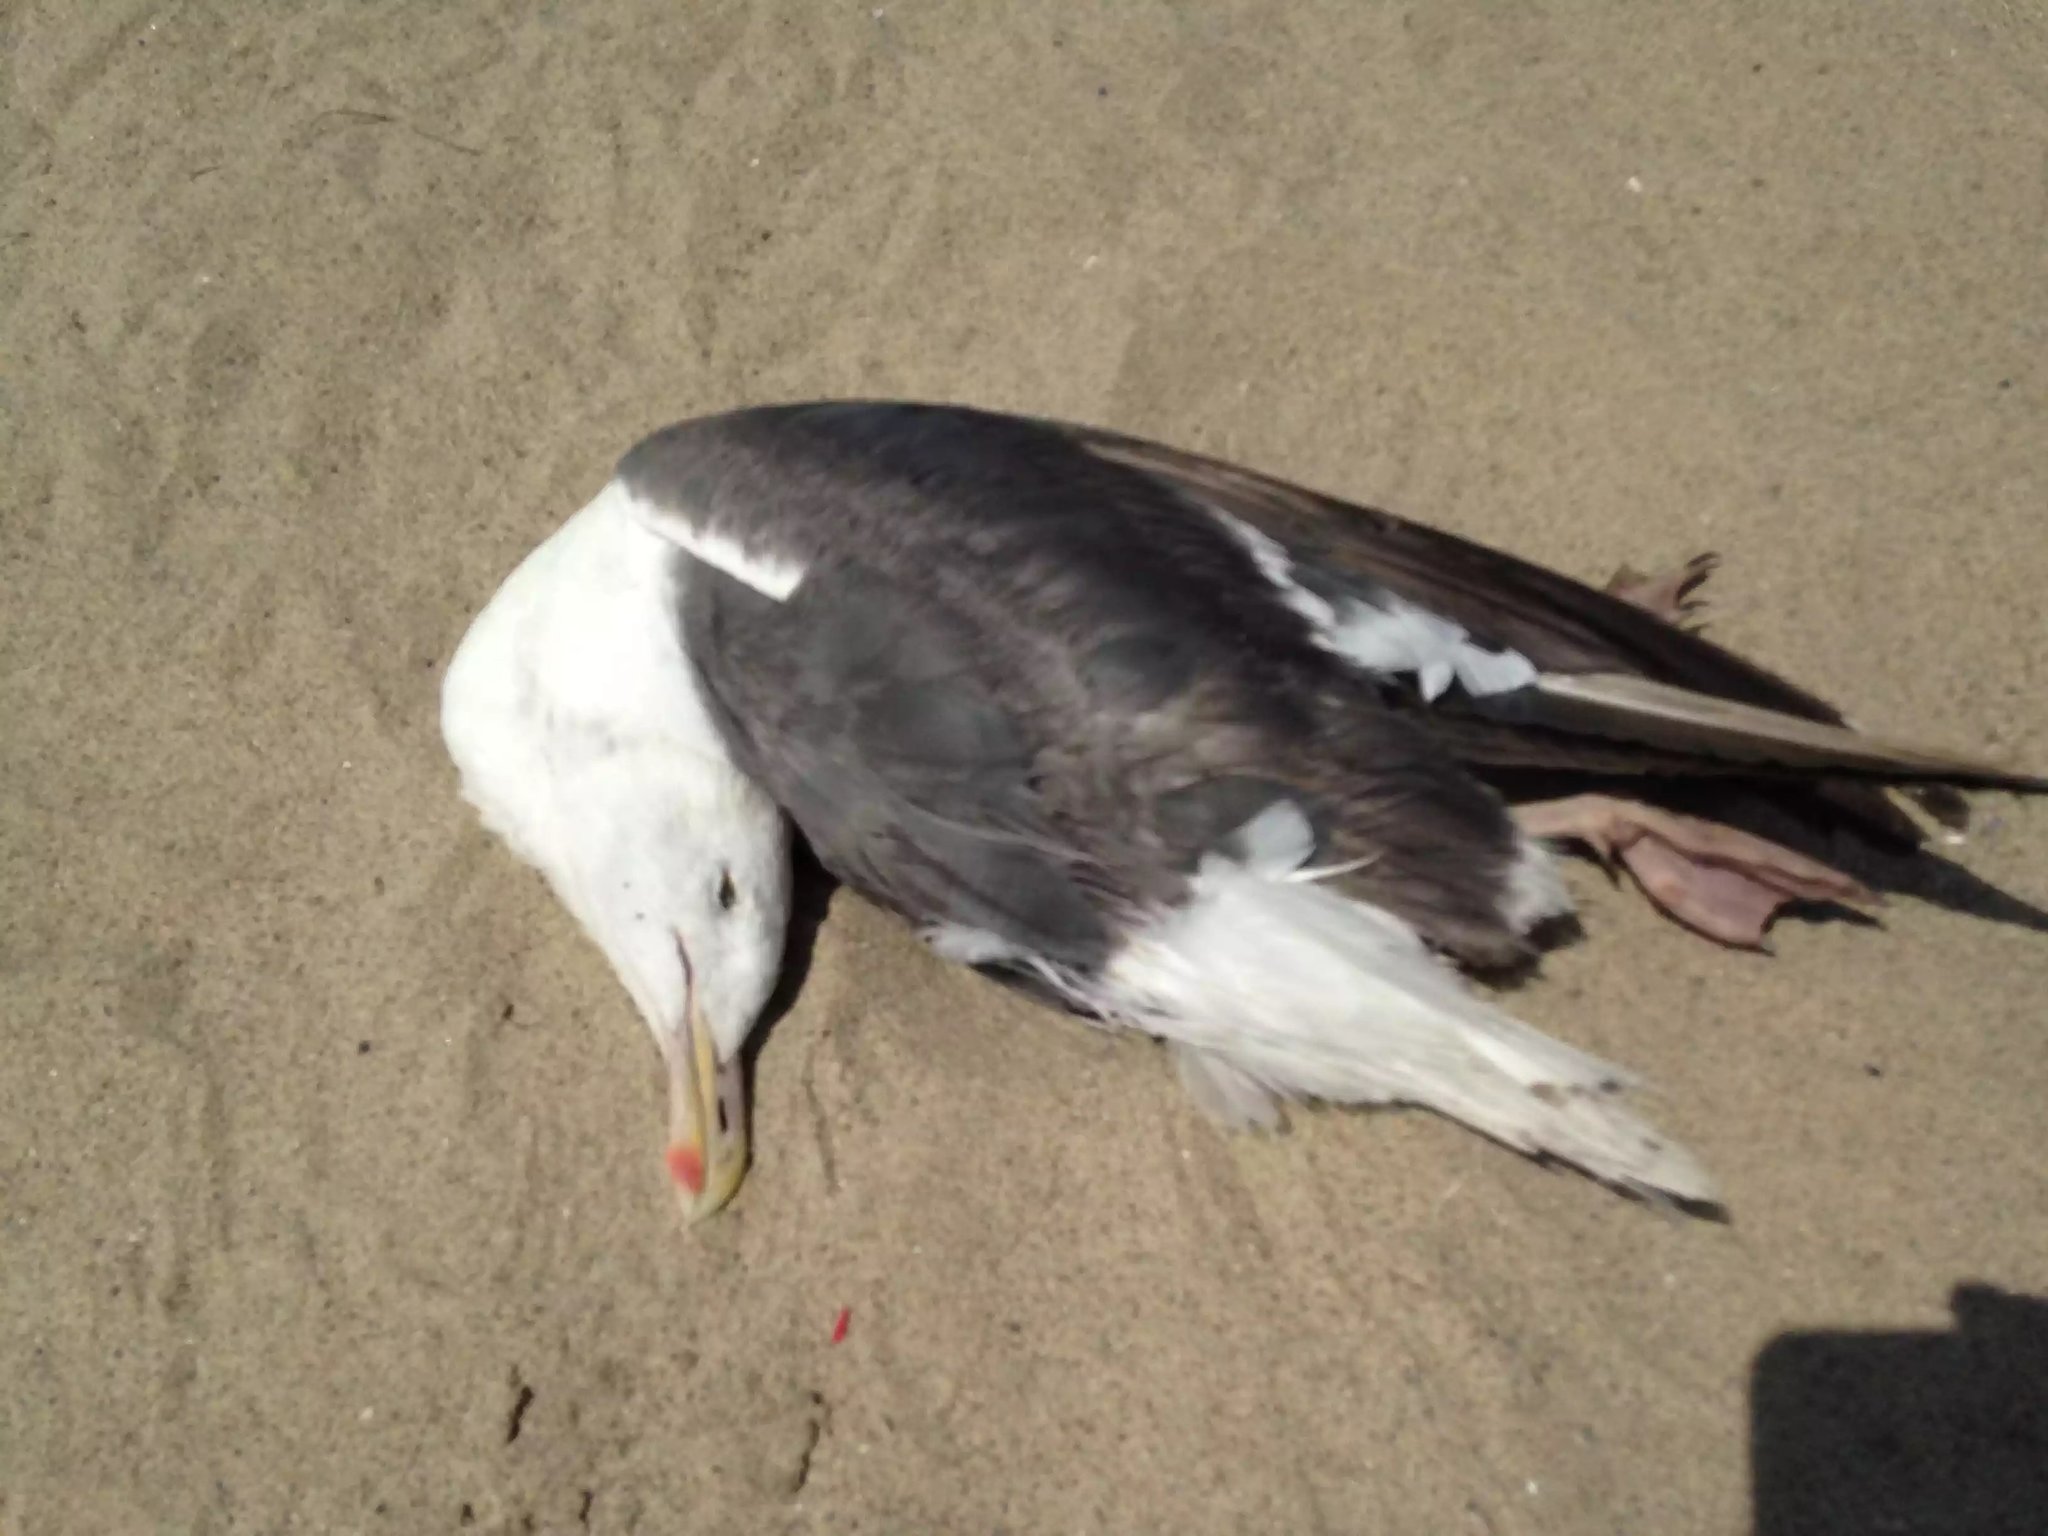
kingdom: Animalia
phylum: Chordata
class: Aves
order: Charadriiformes
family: Laridae
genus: Larus
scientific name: Larus occidentalis
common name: Western gull
